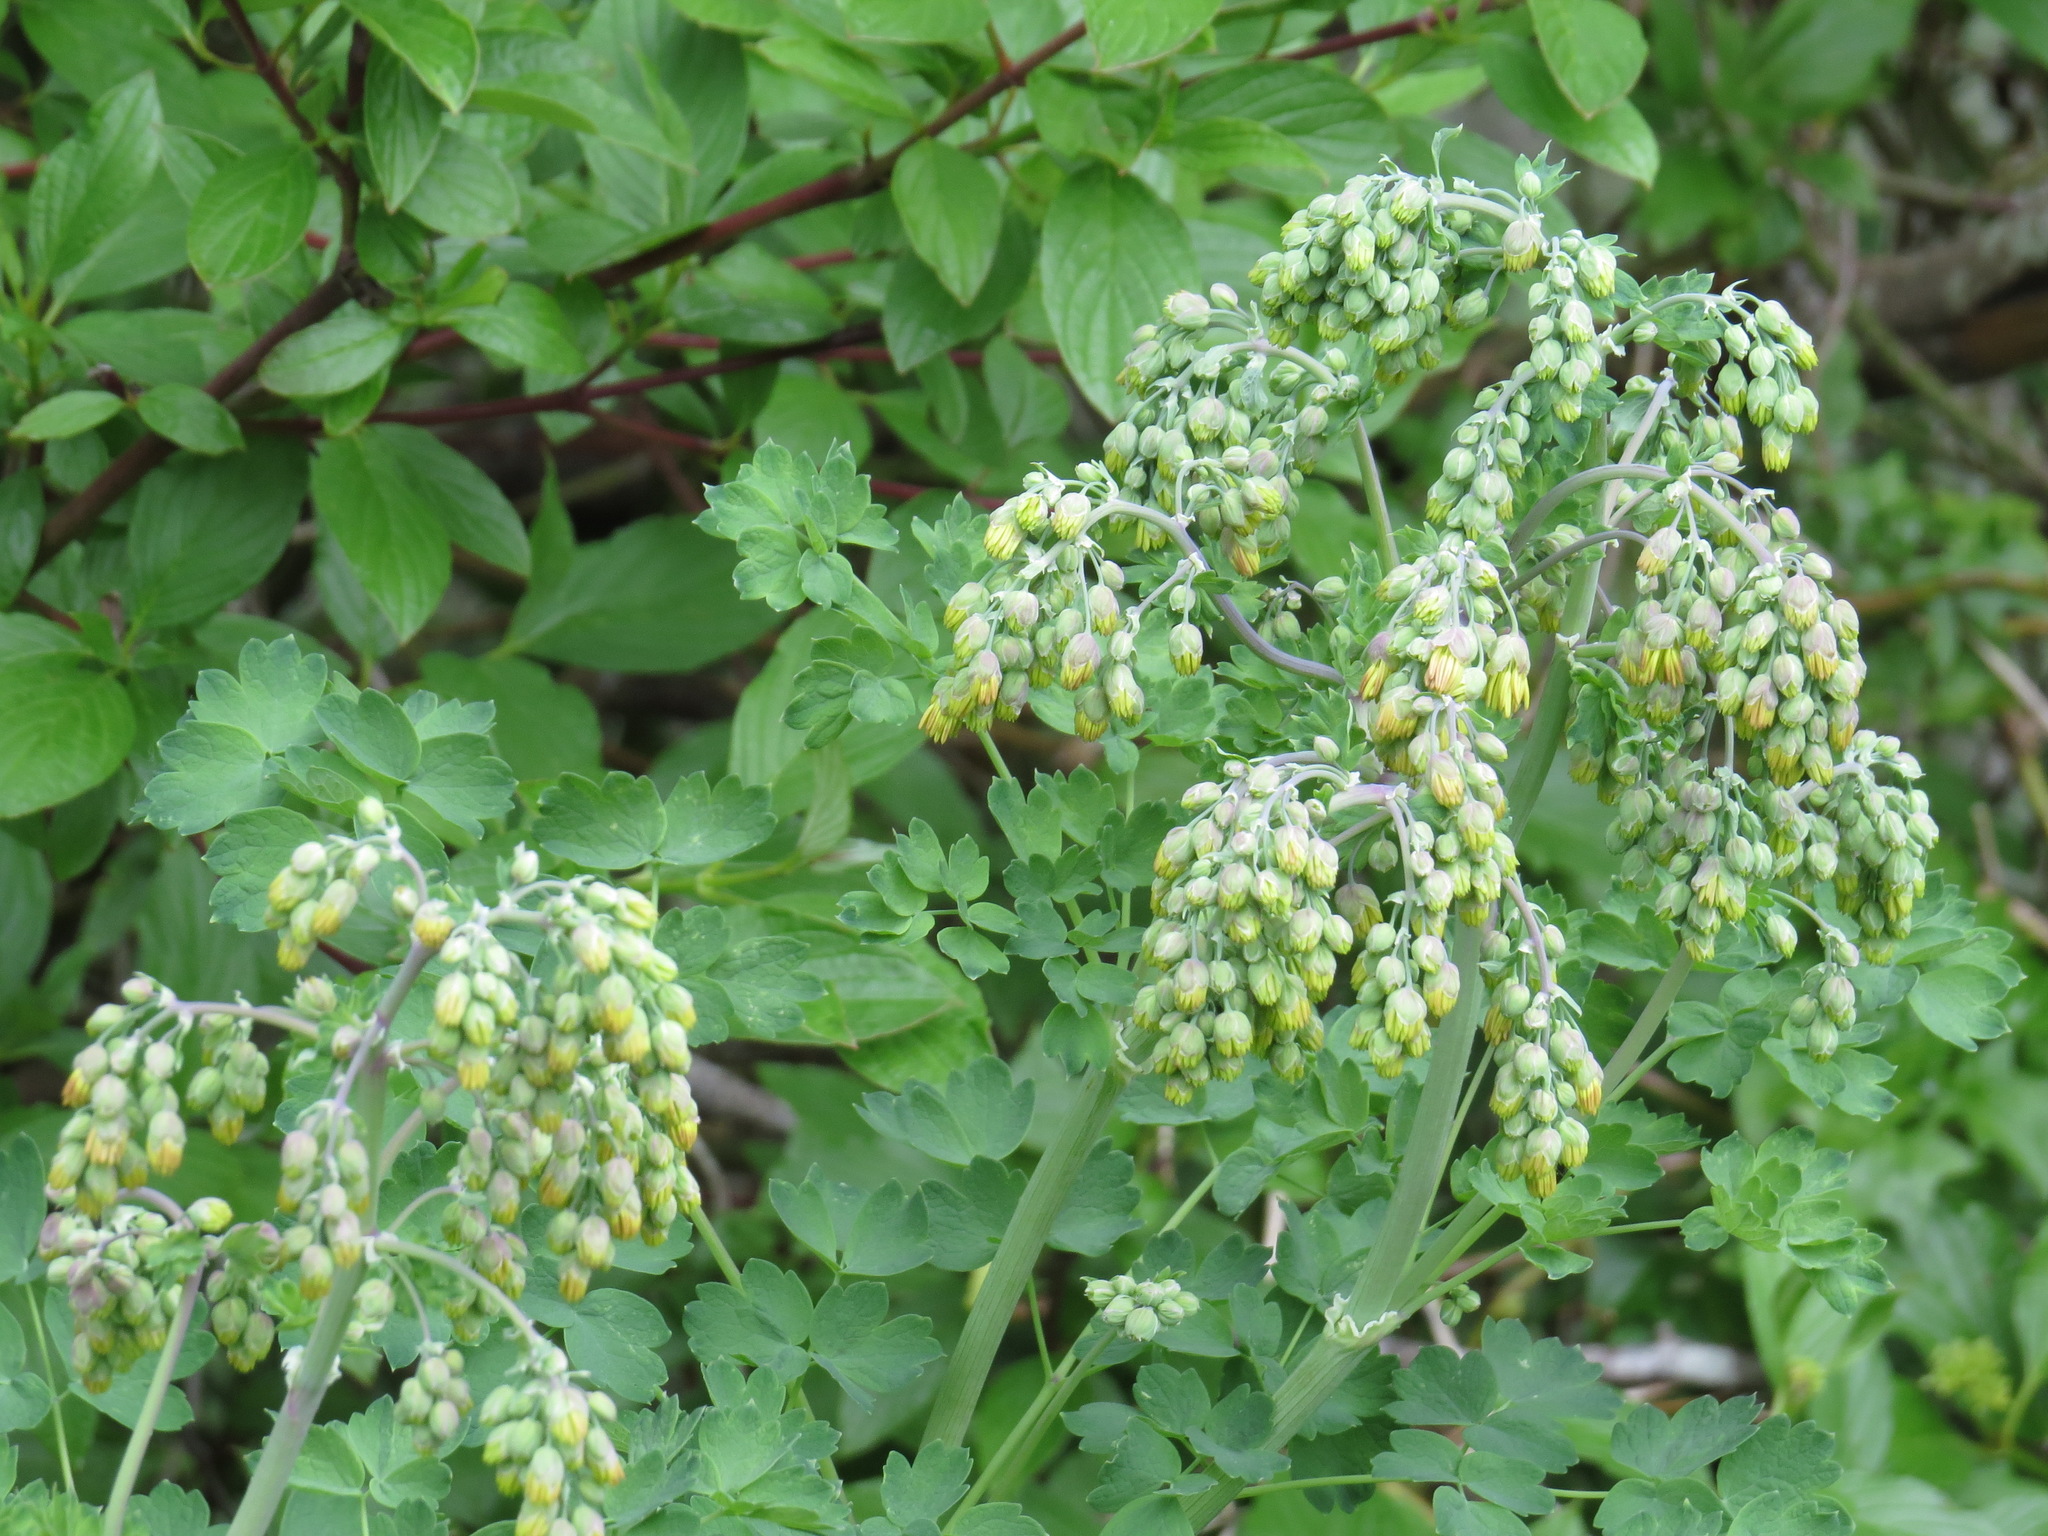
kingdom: Plantae
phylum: Tracheophyta
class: Magnoliopsida
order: Ranunculales
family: Ranunculaceae
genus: Thalictrum
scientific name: Thalictrum fendleri
